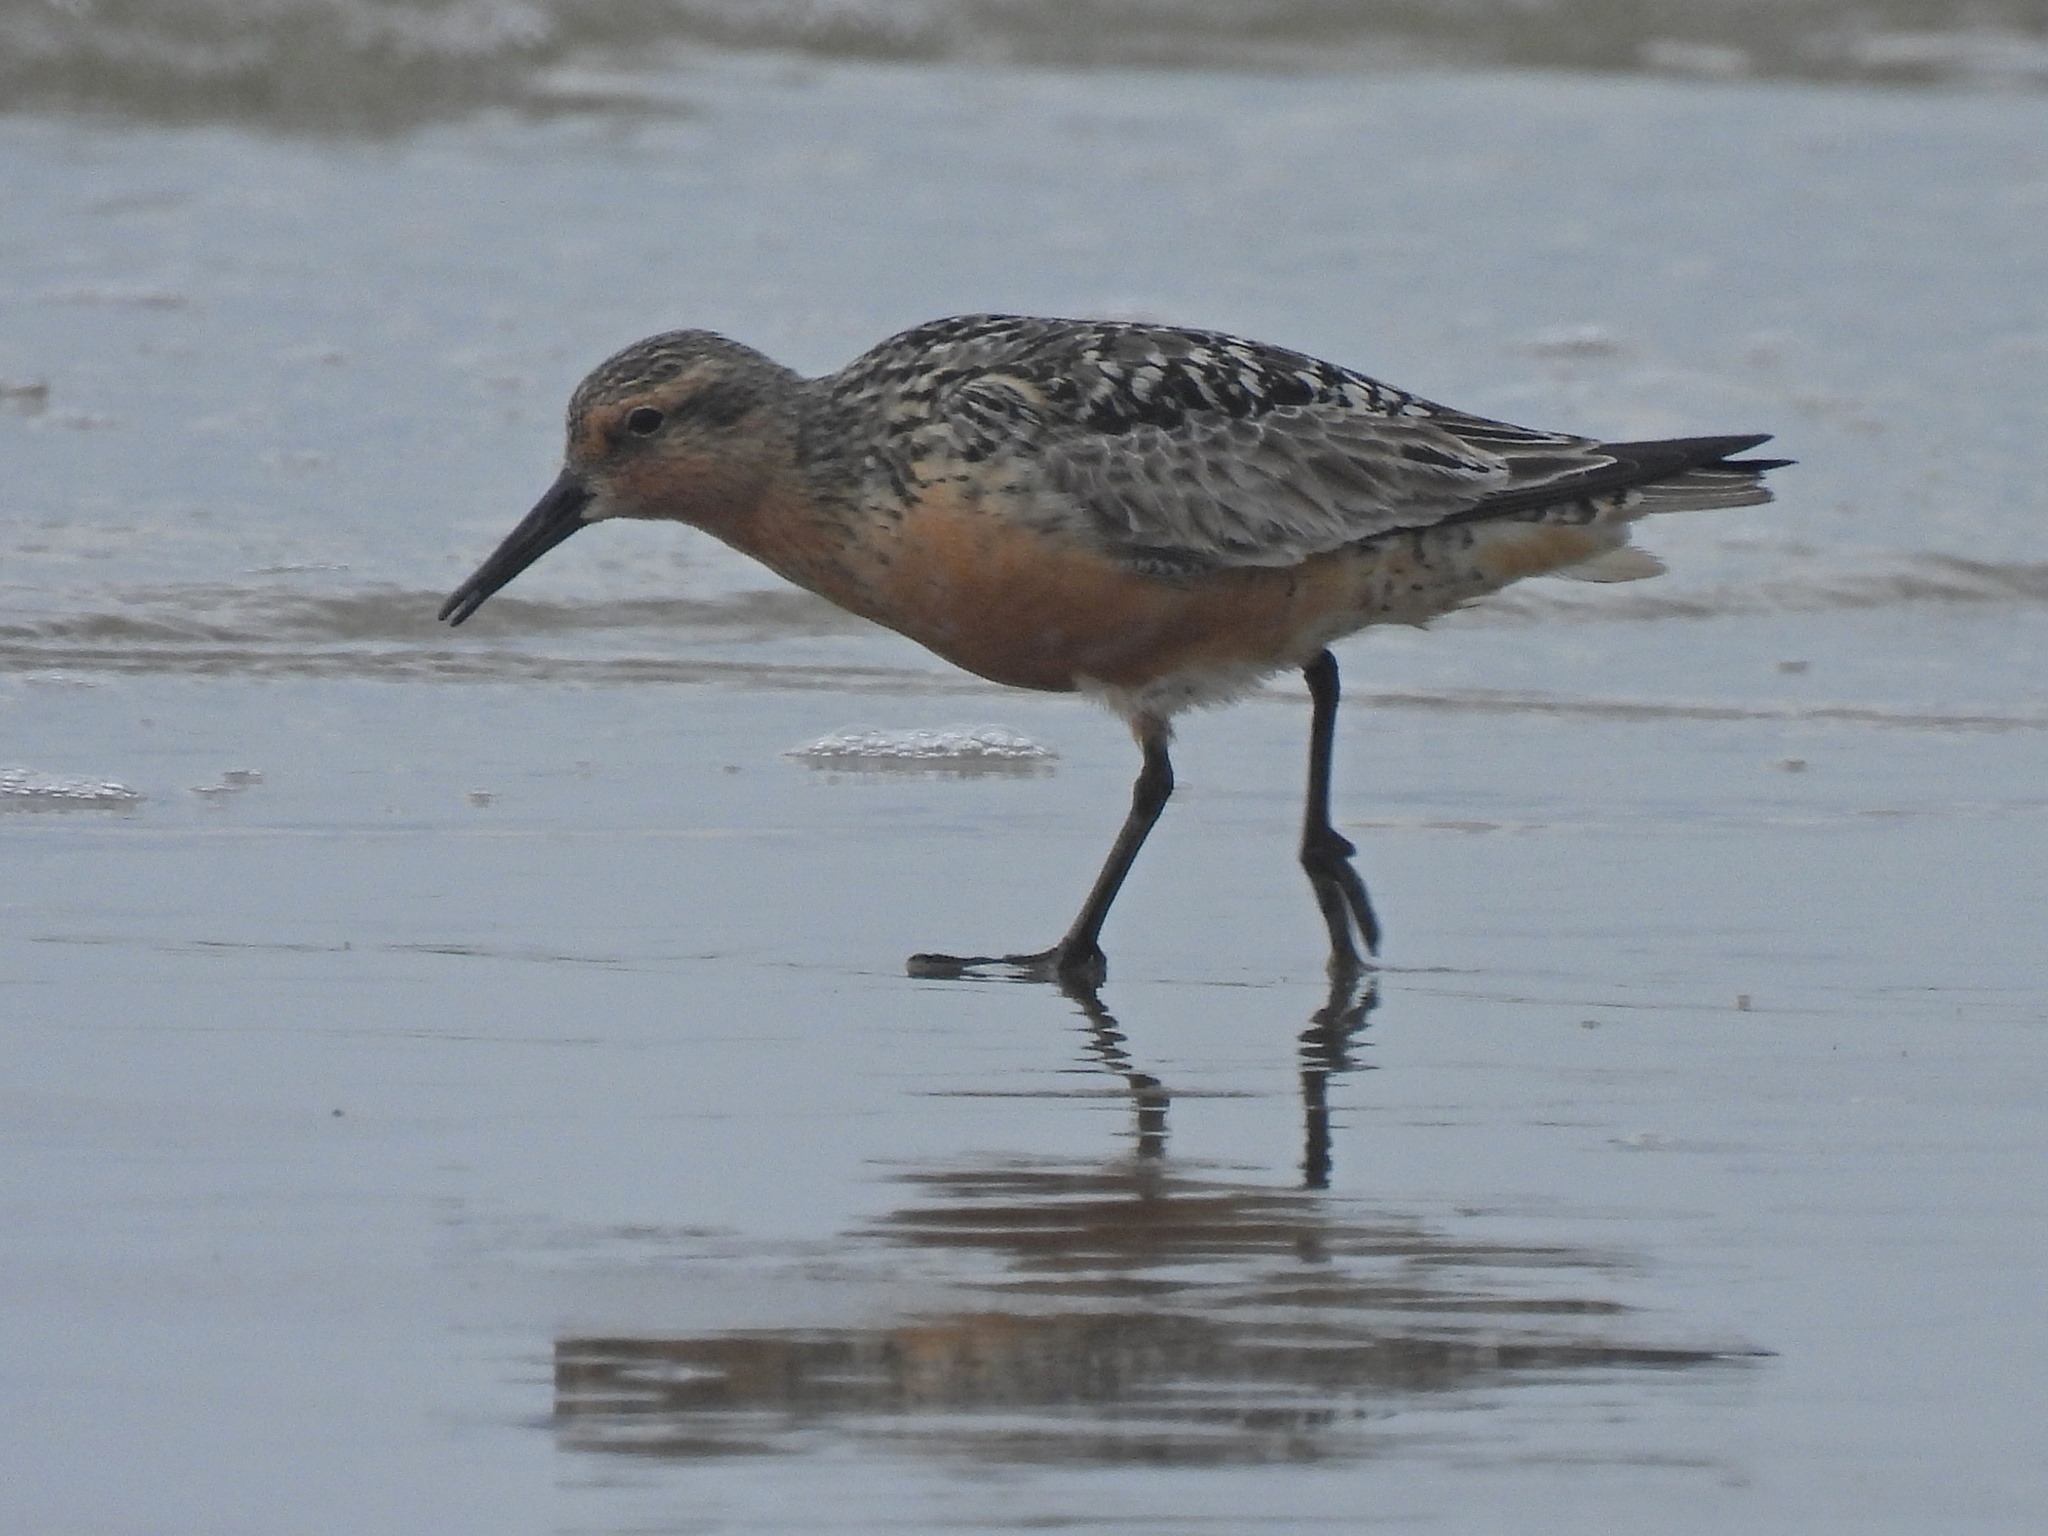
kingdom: Animalia
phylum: Chordata
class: Aves
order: Charadriiformes
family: Scolopacidae
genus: Calidris
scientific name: Calidris canutus
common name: Red knot
